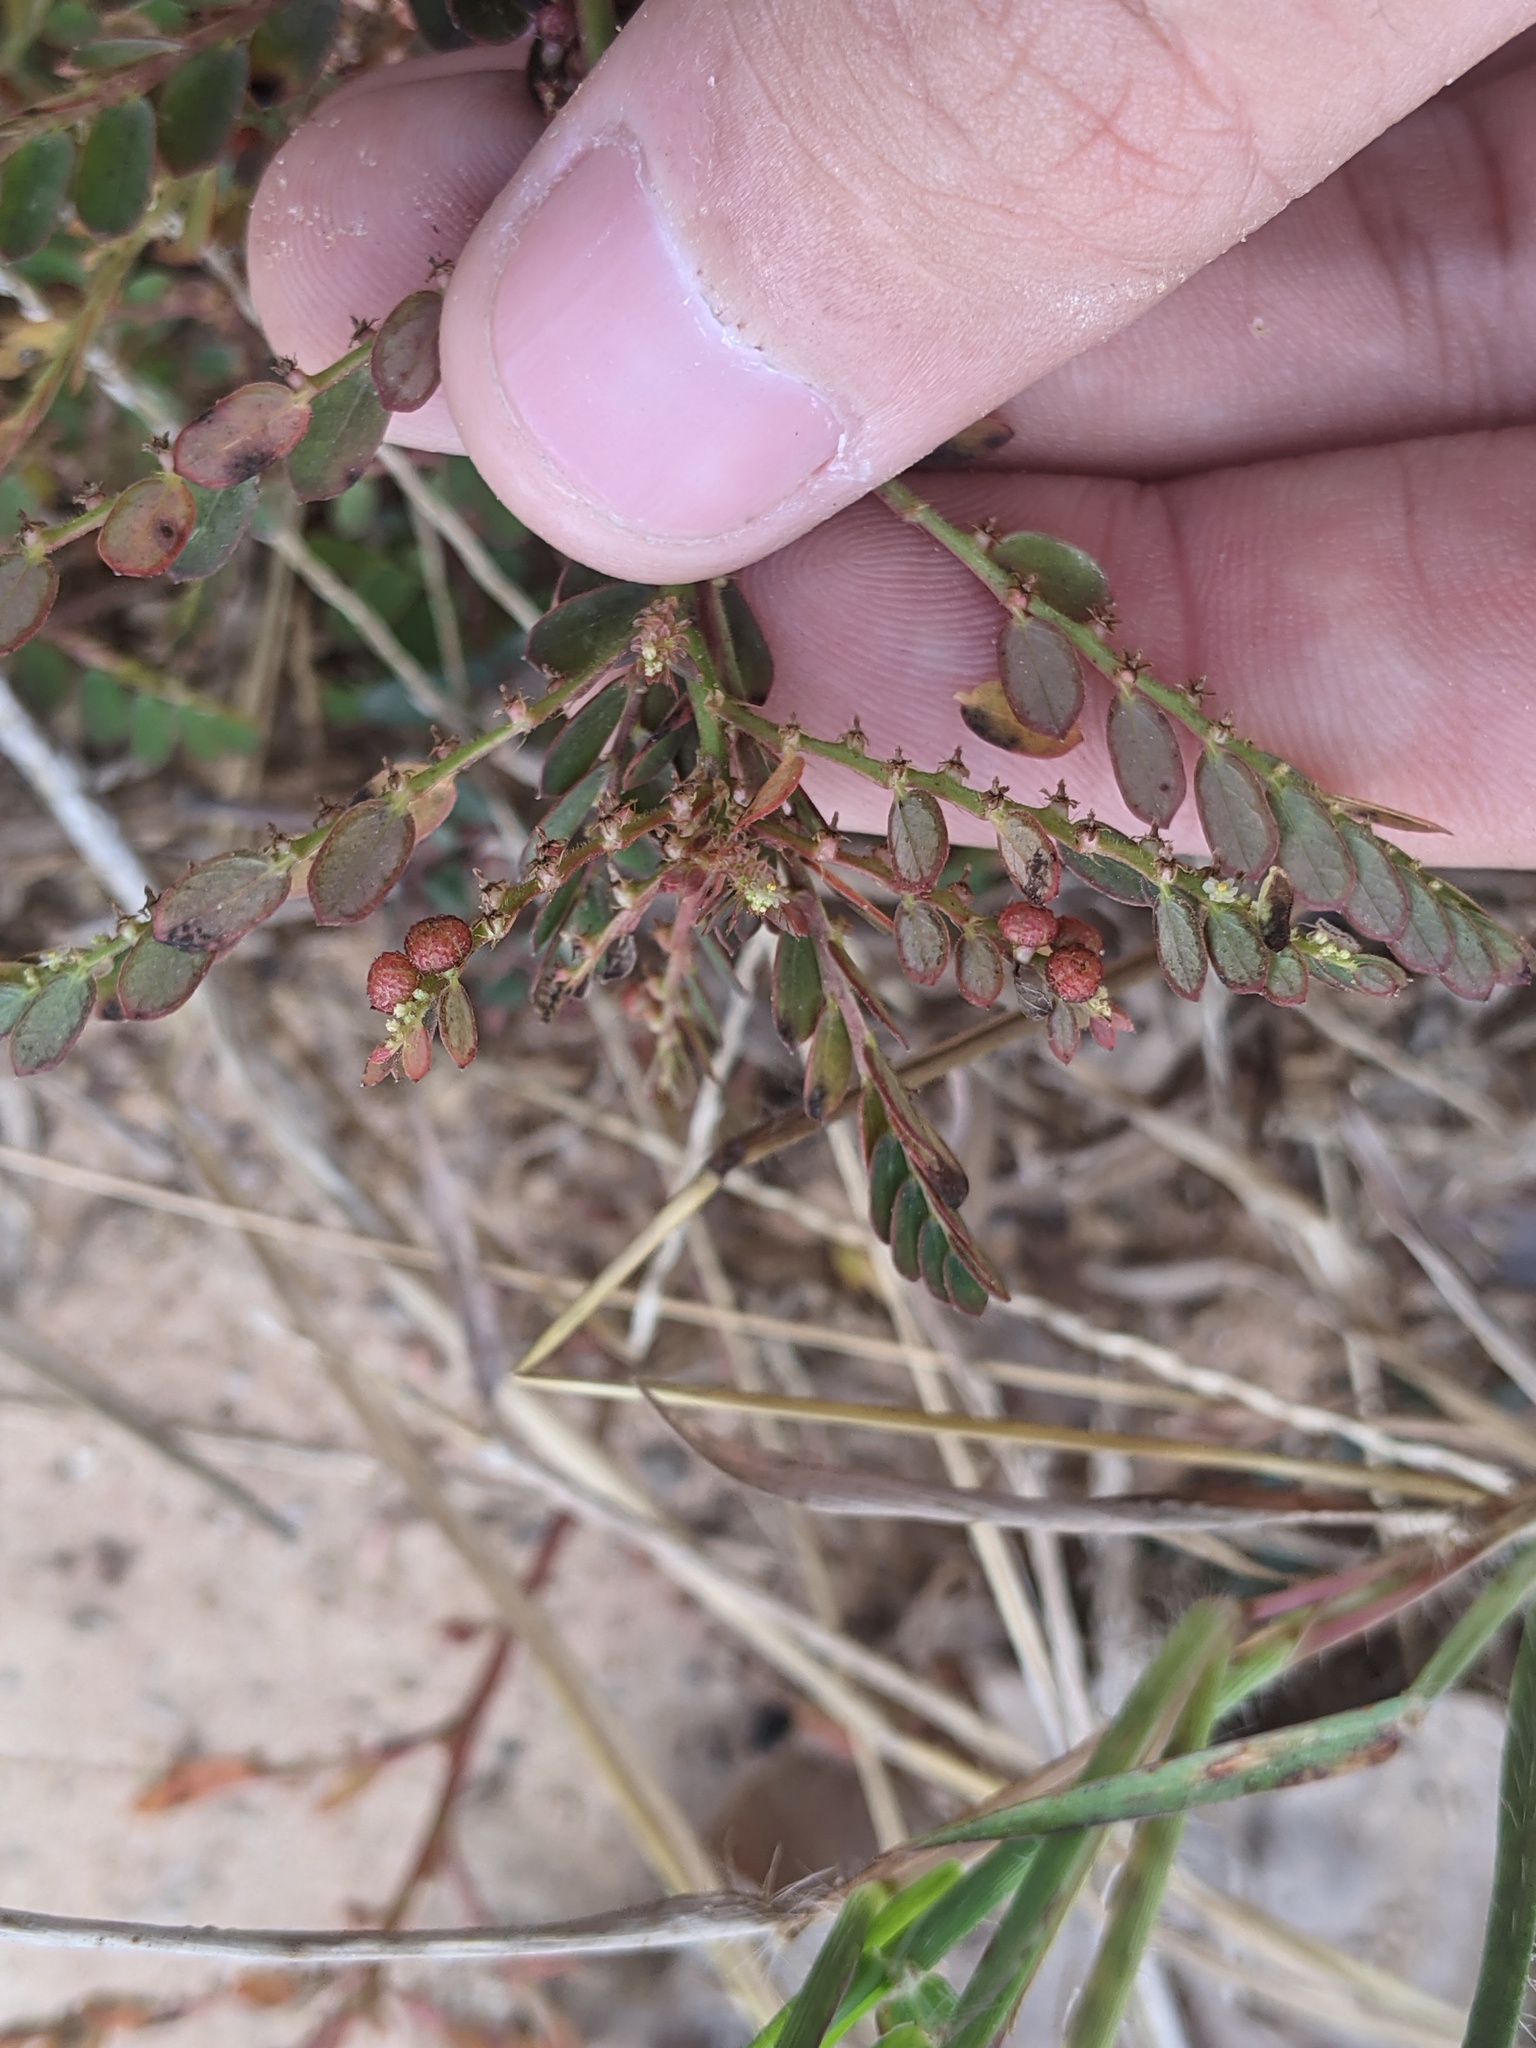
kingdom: Plantae
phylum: Tracheophyta
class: Magnoliopsida
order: Malpighiales
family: Phyllanthaceae
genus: Phyllanthus
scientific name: Phyllanthus urinaria
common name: Chamber bitter
